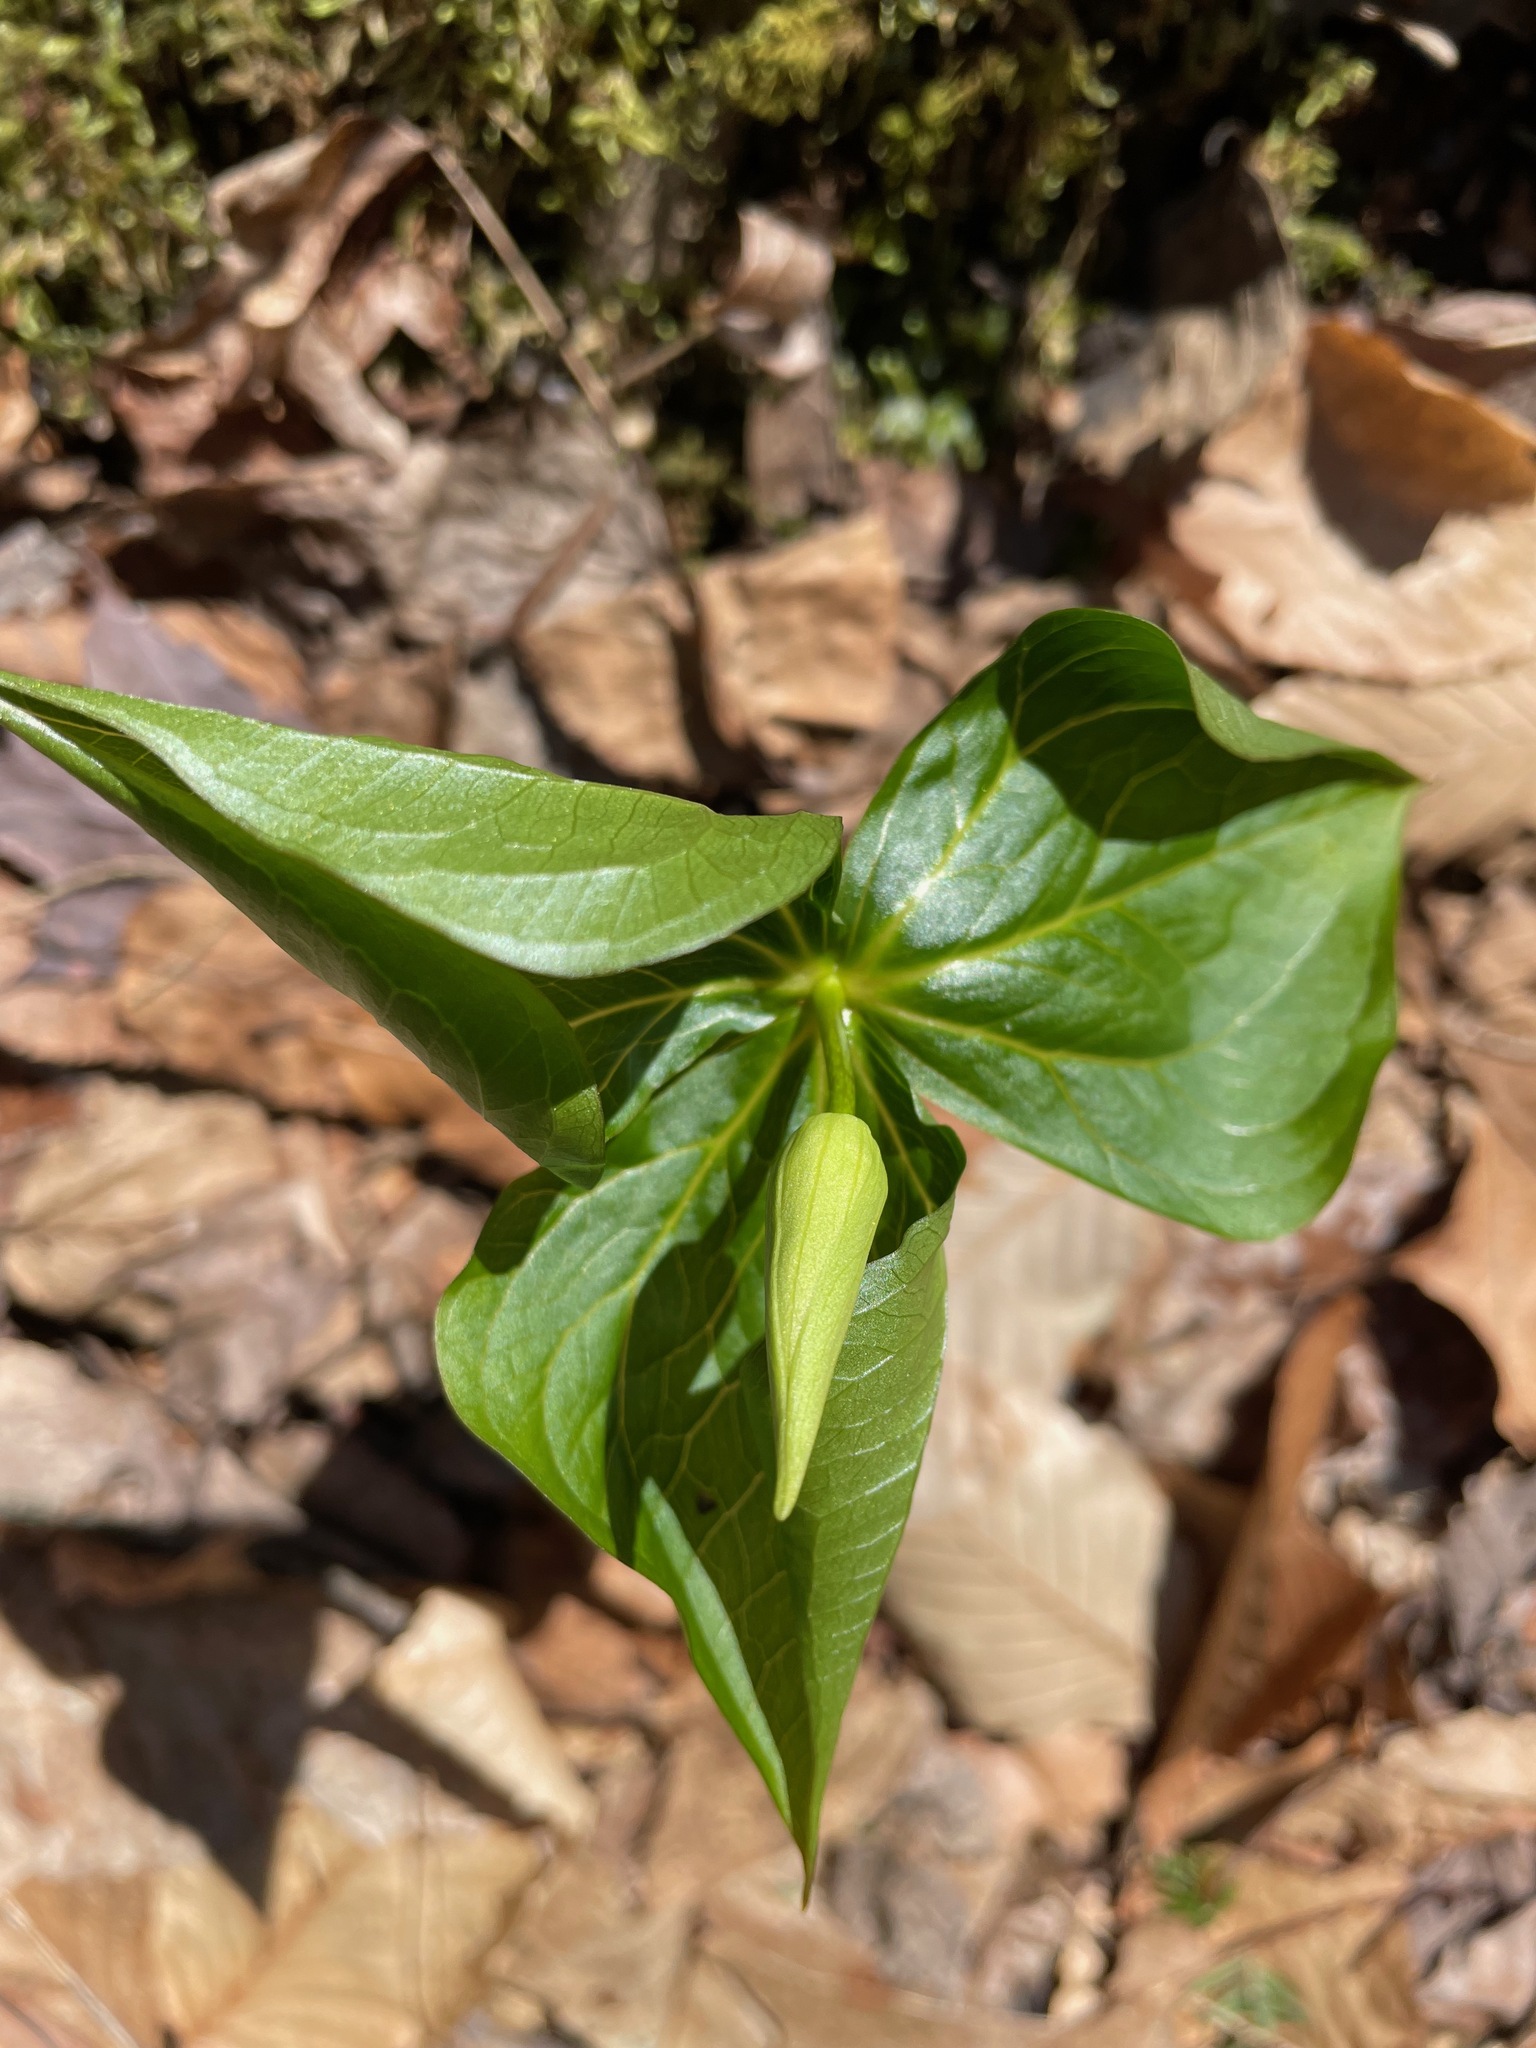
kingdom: Plantae
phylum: Tracheophyta
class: Liliopsida
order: Liliales
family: Melanthiaceae
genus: Trillium
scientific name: Trillium erectum
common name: Purple trillium
